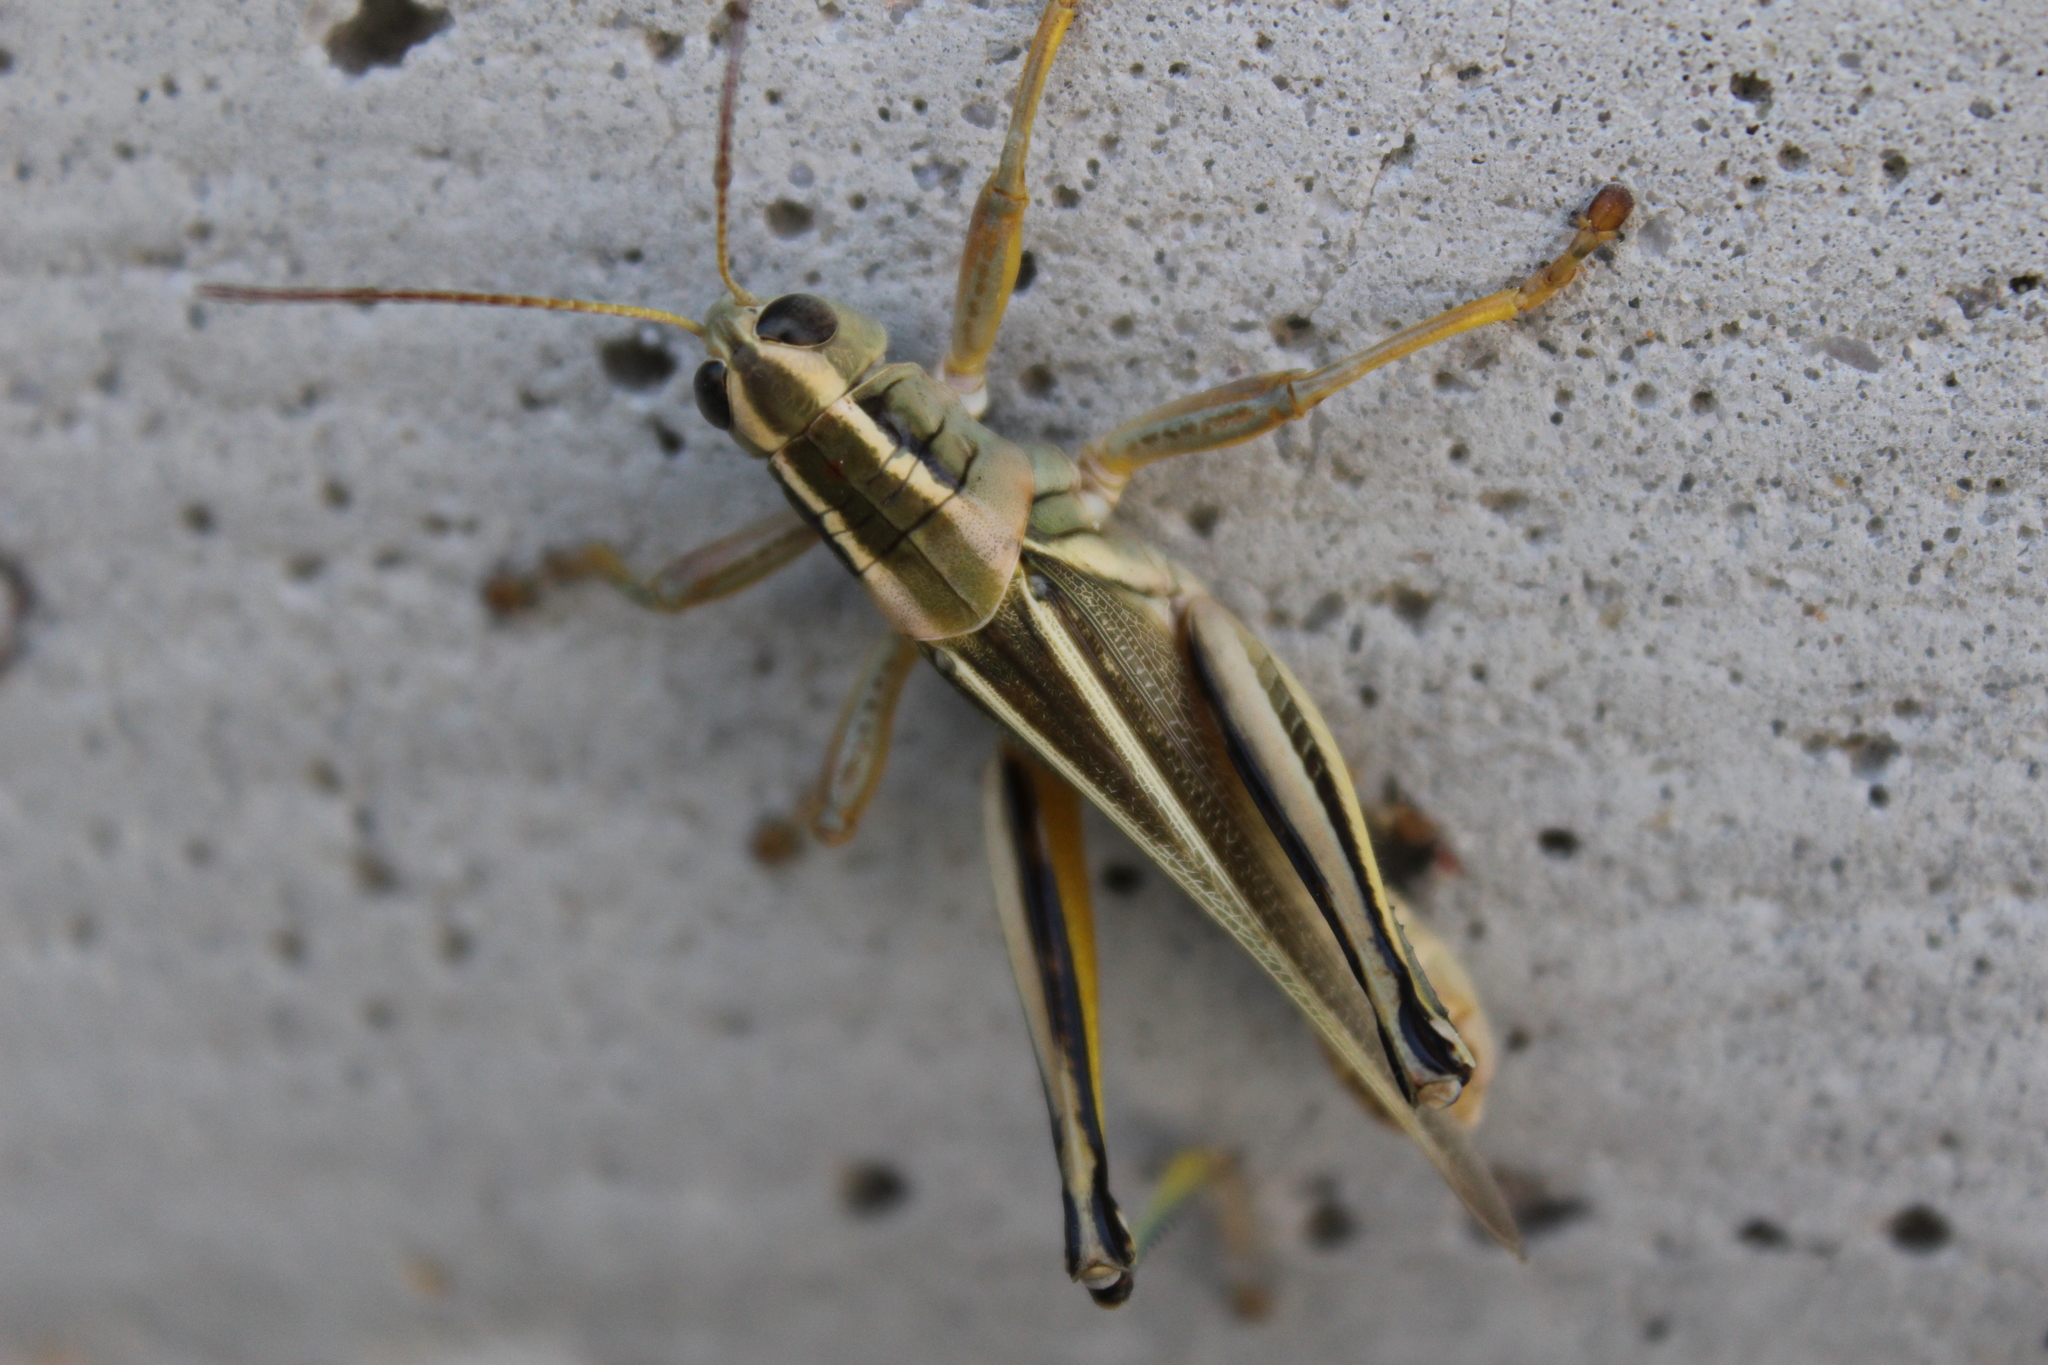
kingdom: Animalia
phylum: Arthropoda
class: Insecta
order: Orthoptera
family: Acrididae
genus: Melanoplus
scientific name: Melanoplus bivittatus
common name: Two-striped grasshopper
